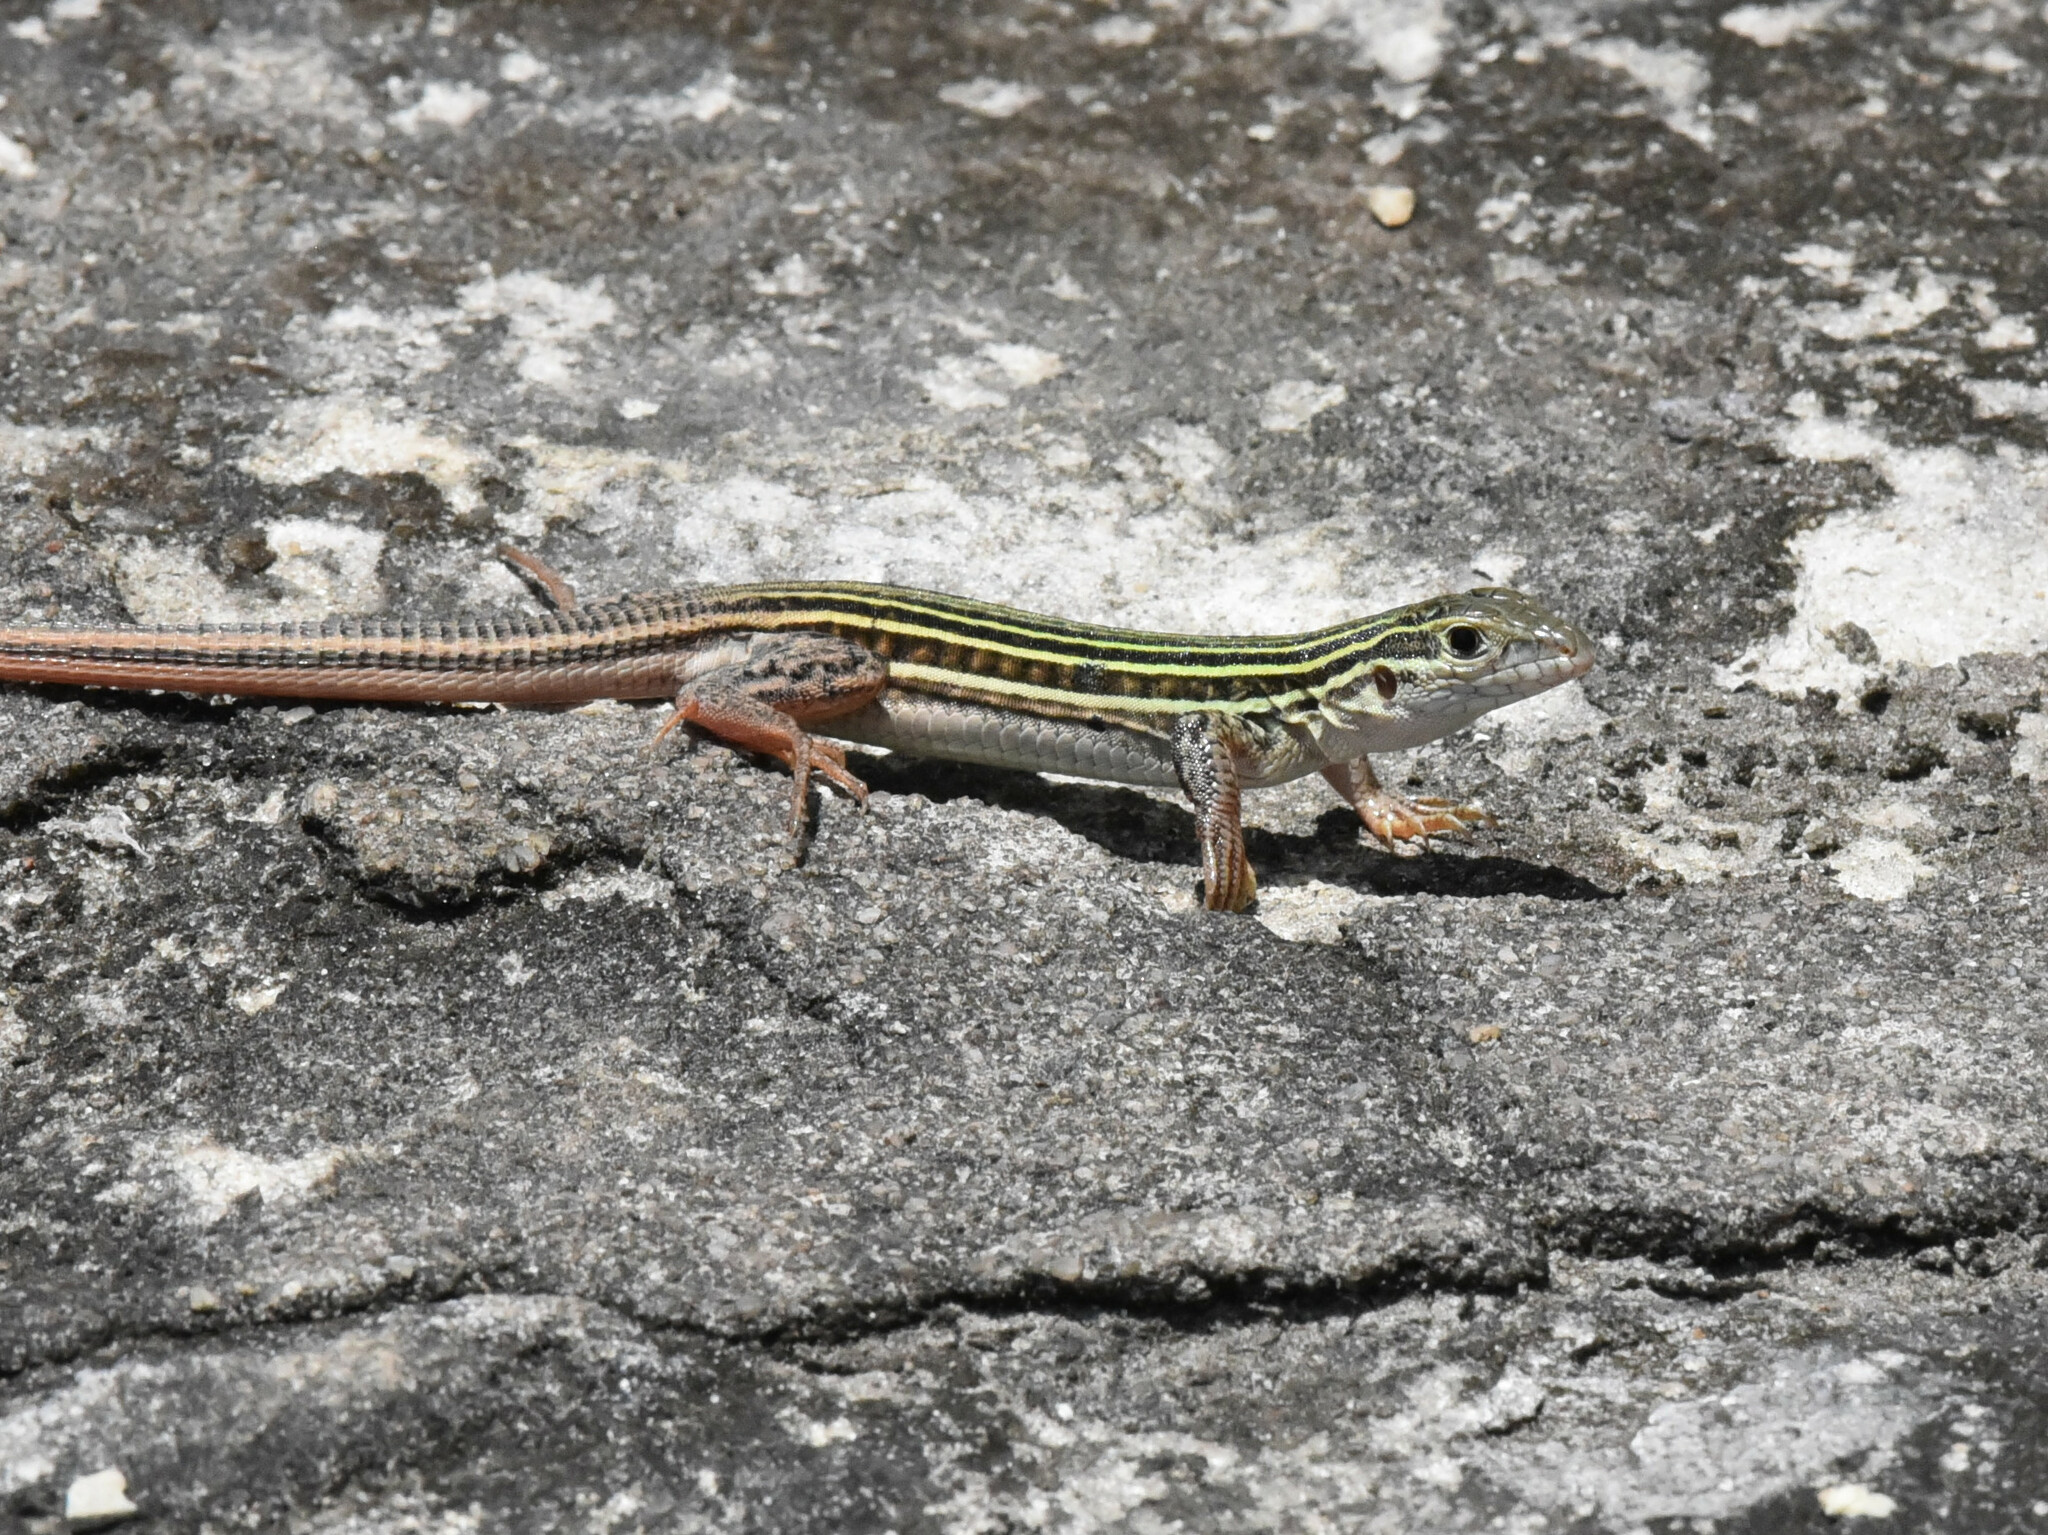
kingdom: Animalia
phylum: Chordata
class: Squamata
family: Teiidae
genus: Aspidoscelis
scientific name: Aspidoscelis gularis
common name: Eastern spotted whiptail
